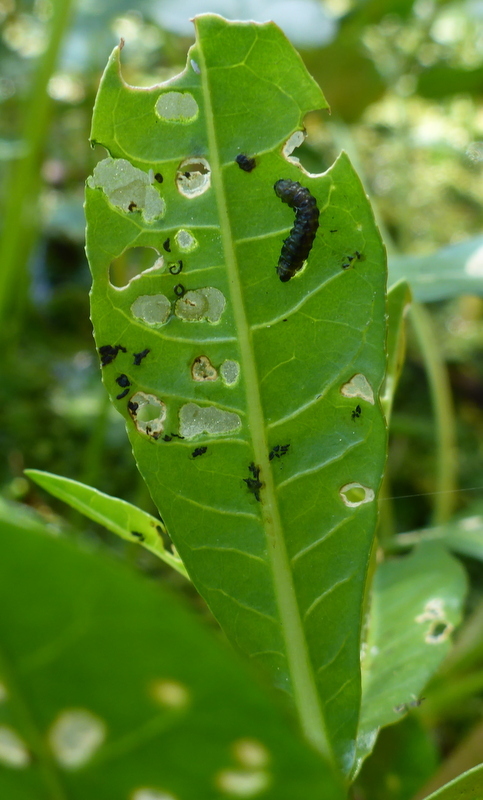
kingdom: Animalia
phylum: Arthropoda
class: Insecta
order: Coleoptera
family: Chrysomelidae
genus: Agasicles
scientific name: Agasicles hygrophila
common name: Alligatorweed flea beetle
